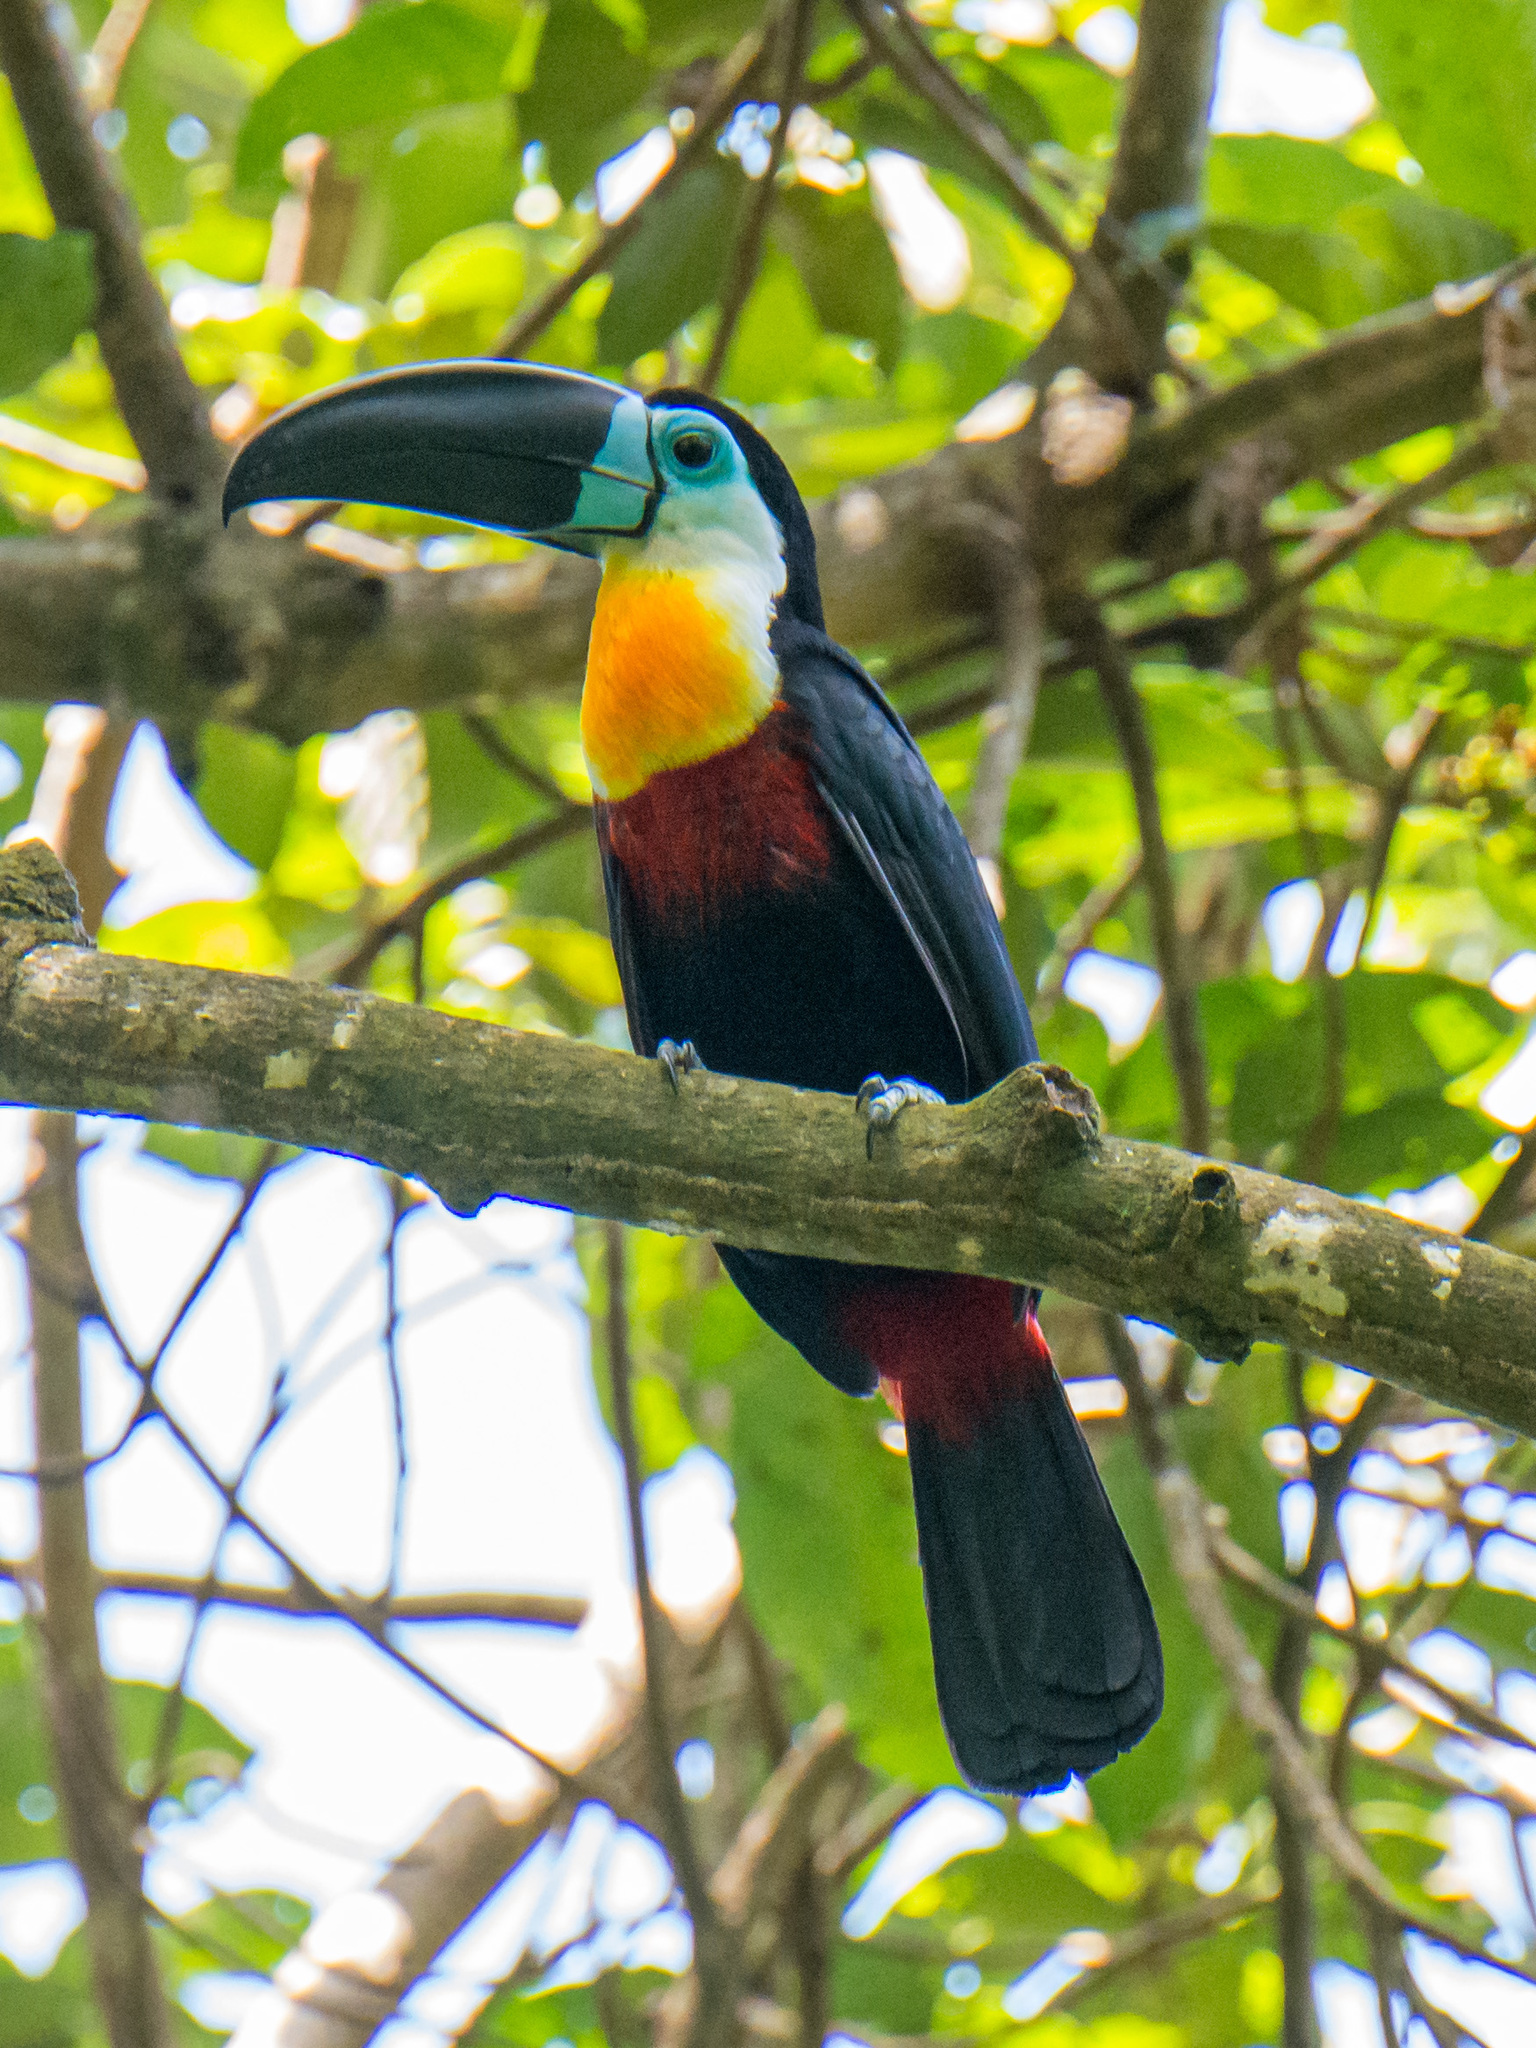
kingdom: Animalia
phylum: Chordata
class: Aves
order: Piciformes
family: Ramphastidae
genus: Ramphastos
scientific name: Ramphastos vitellinus
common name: Channel-billed toucan
